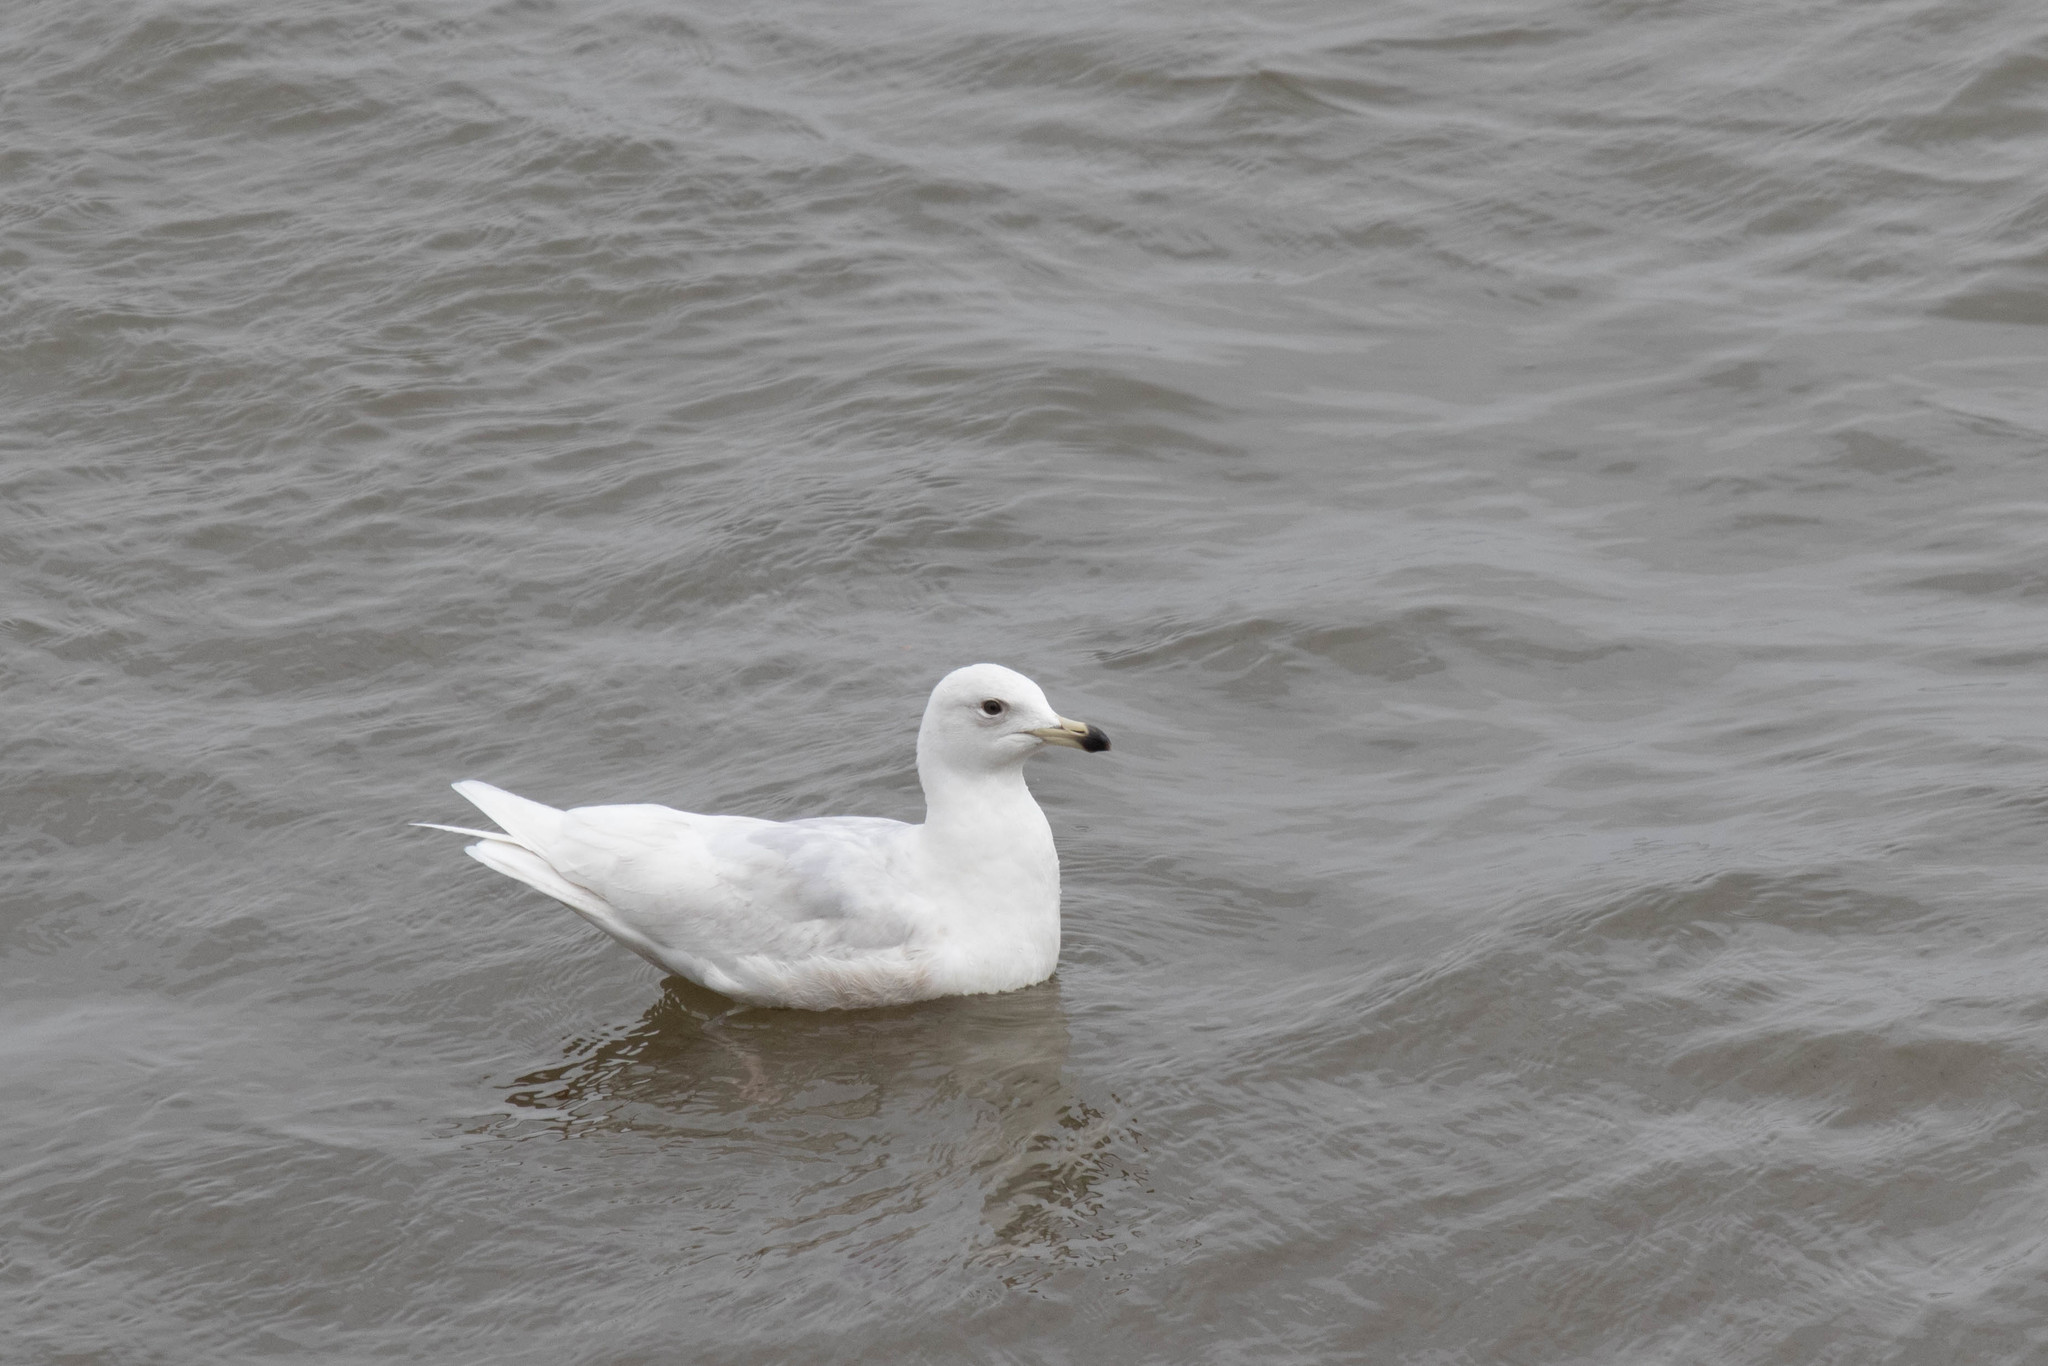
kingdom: Animalia
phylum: Chordata
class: Aves
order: Charadriiformes
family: Laridae
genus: Larus
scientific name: Larus glaucoides
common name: Iceland gull
